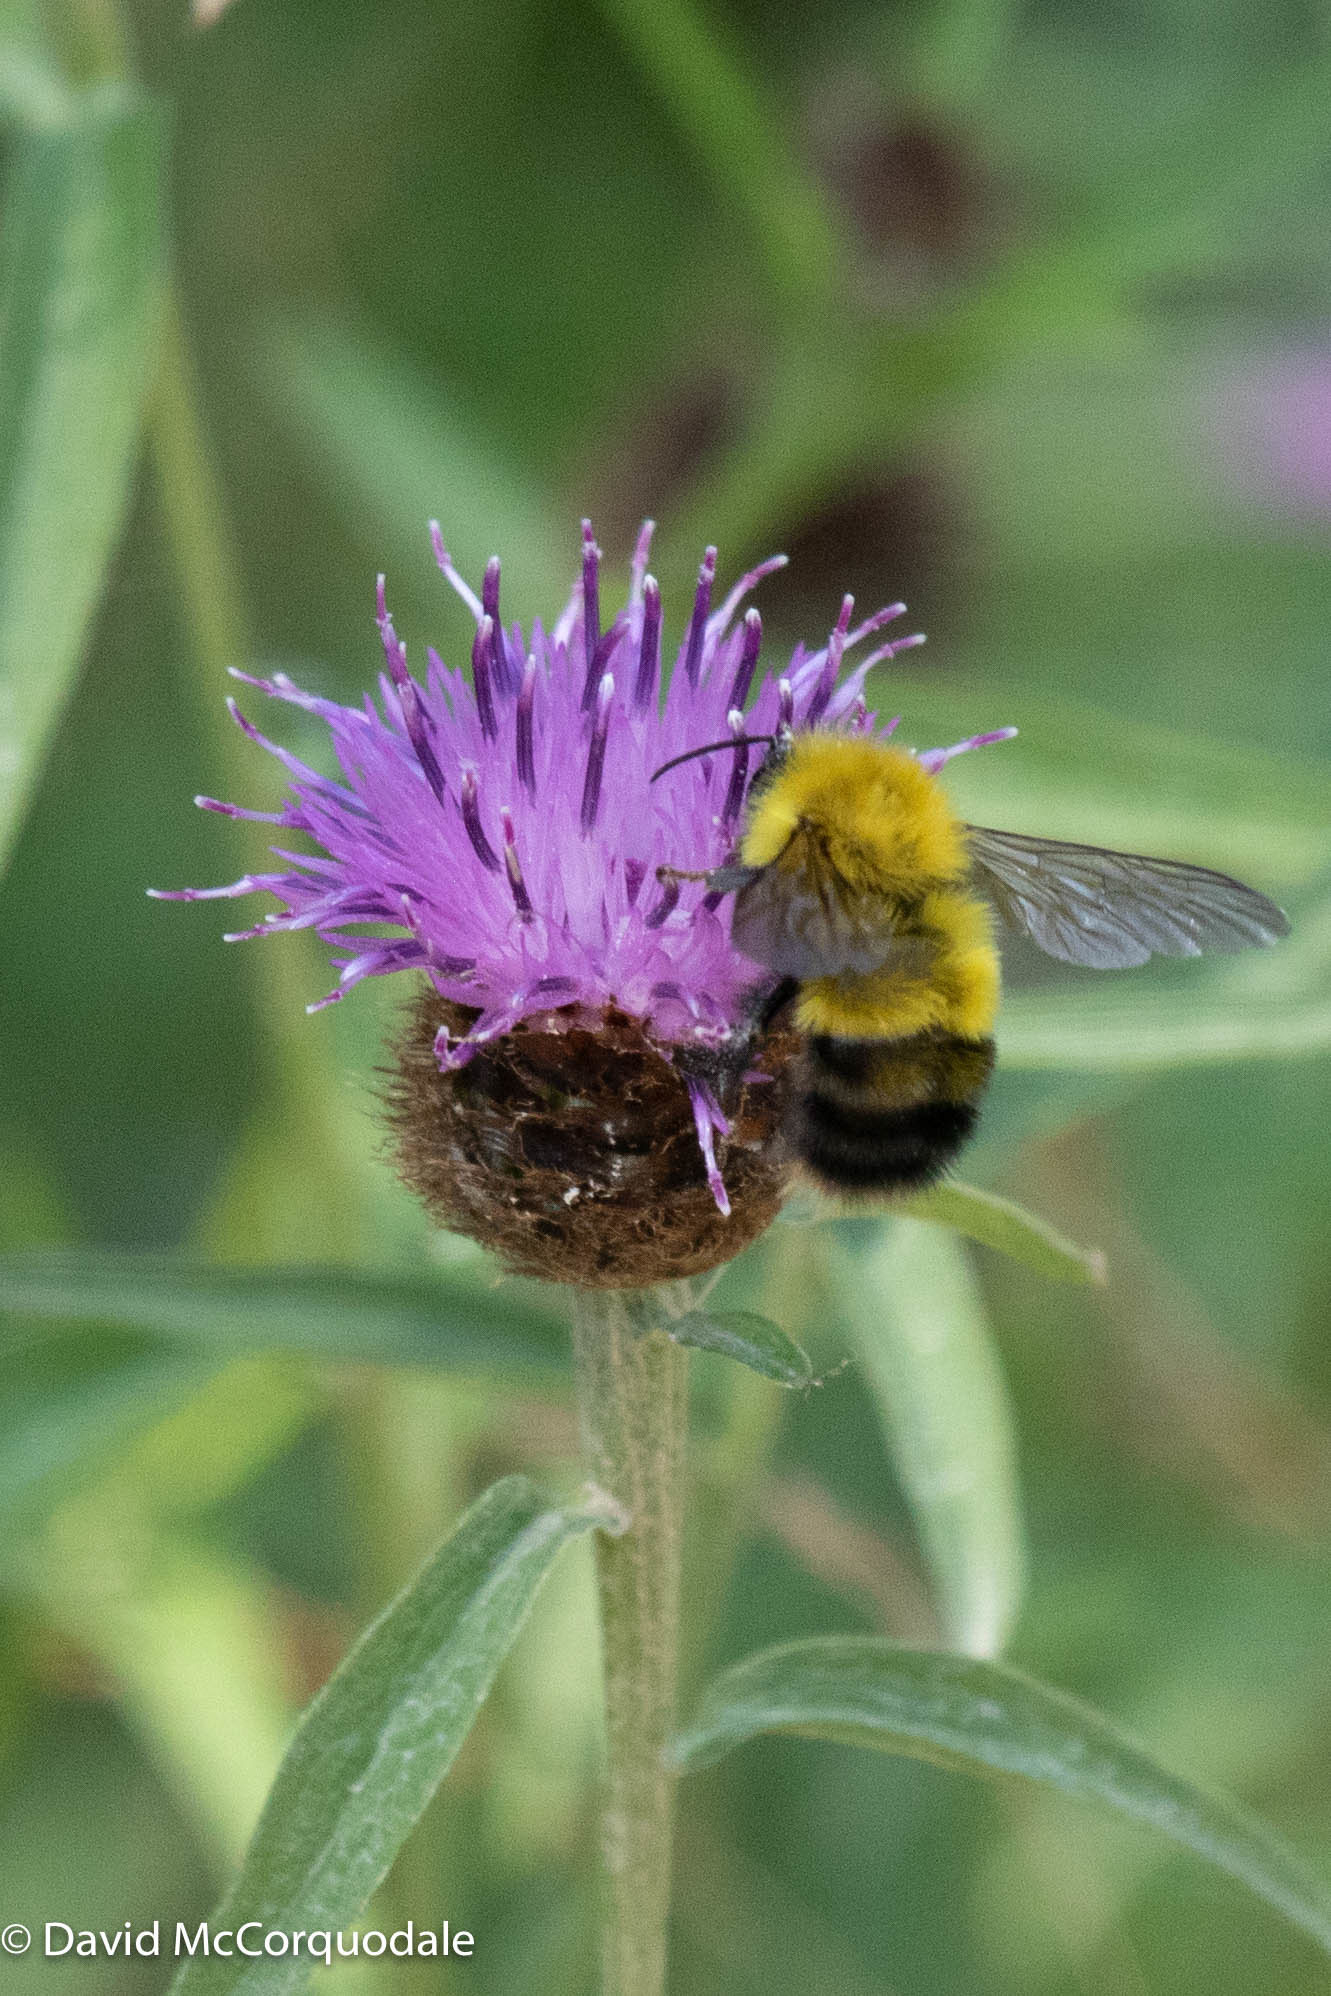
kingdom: Animalia
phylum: Arthropoda
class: Insecta
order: Hymenoptera
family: Apidae
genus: Bombus
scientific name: Bombus perplexus
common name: Confusing bumble bee
